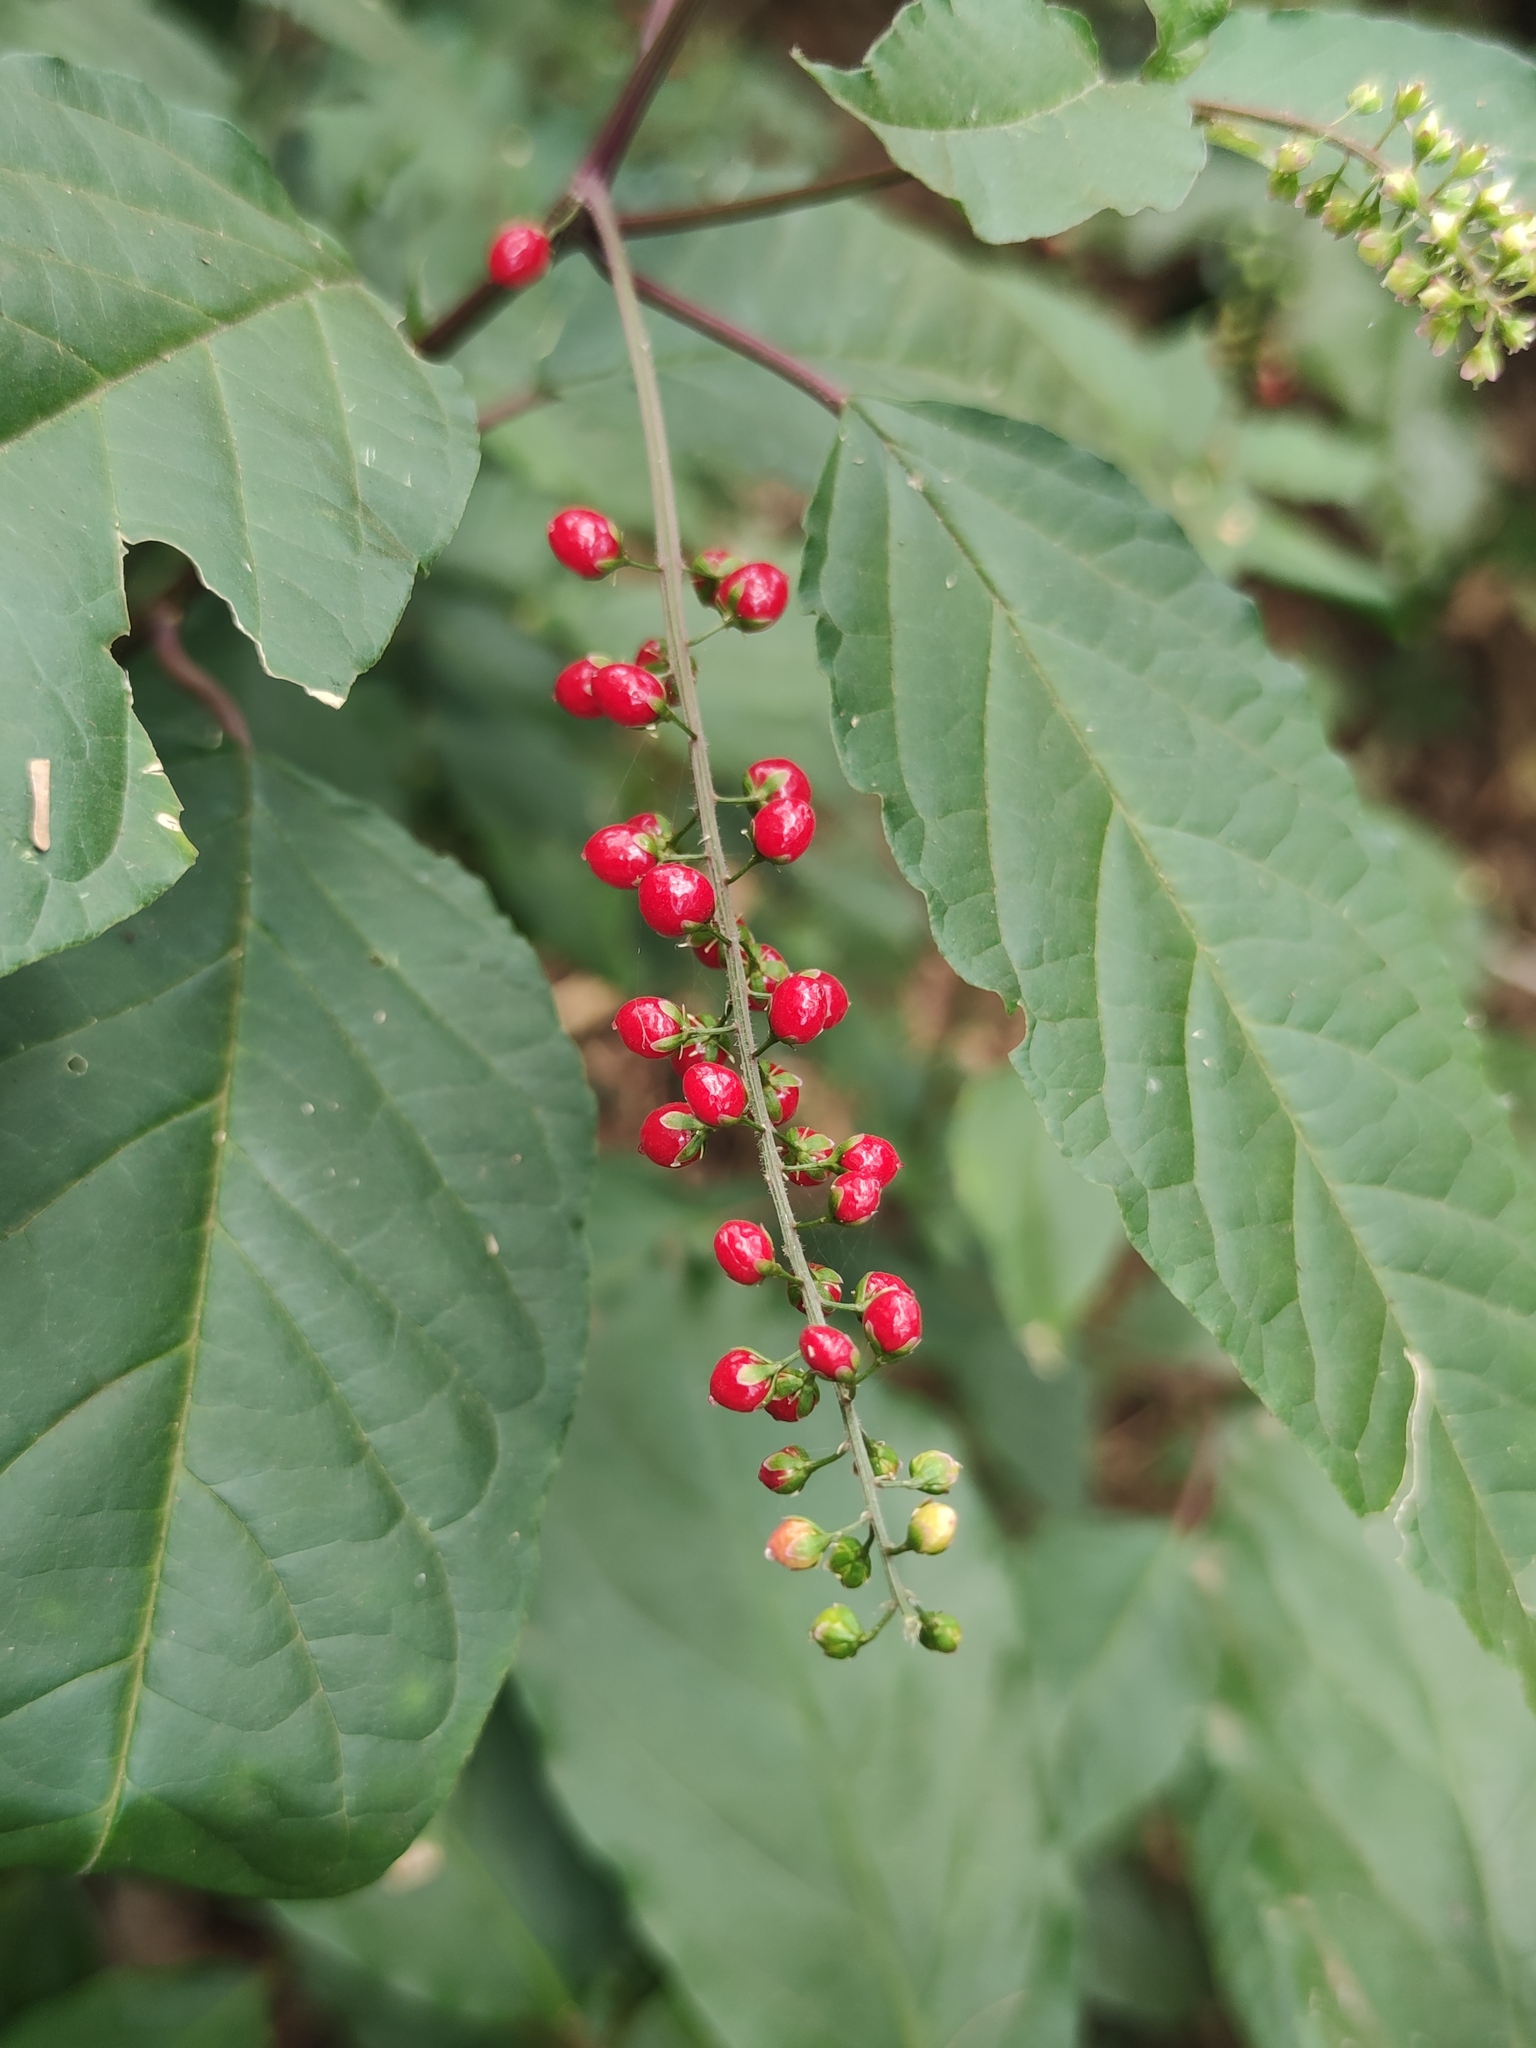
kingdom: Plantae
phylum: Tracheophyta
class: Magnoliopsida
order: Caryophyllales
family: Phytolaccaceae
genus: Rivina
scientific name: Rivina humilis
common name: Rougeplant
